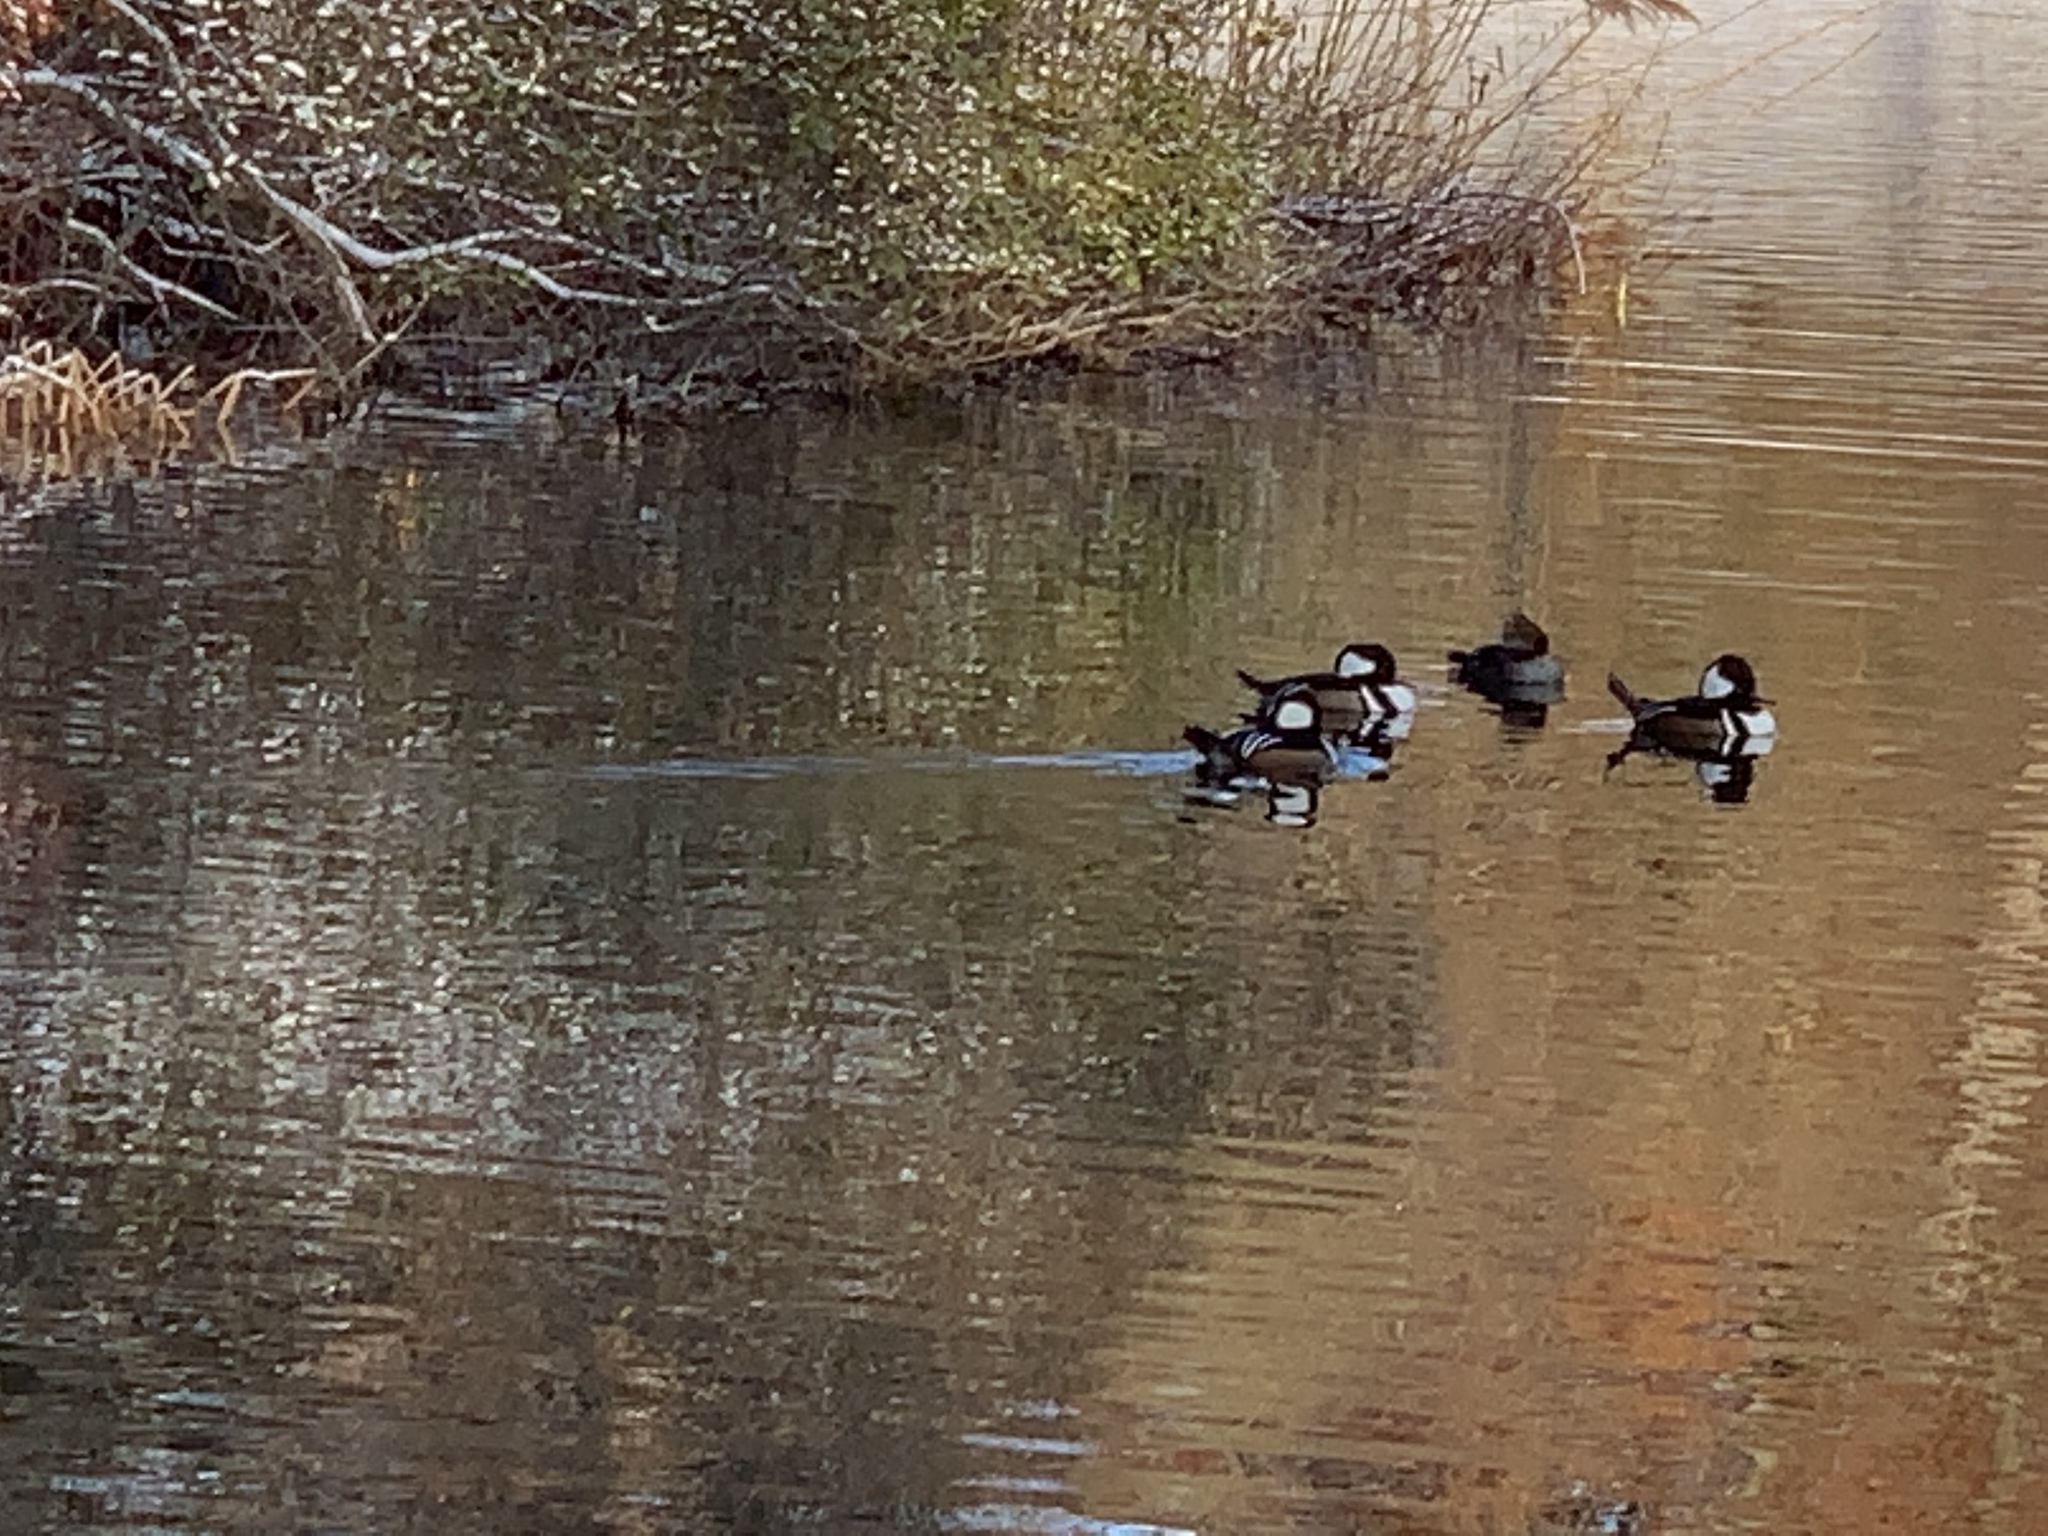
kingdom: Animalia
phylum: Chordata
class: Aves
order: Anseriformes
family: Anatidae
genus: Lophodytes
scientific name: Lophodytes cucullatus
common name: Hooded merganser
